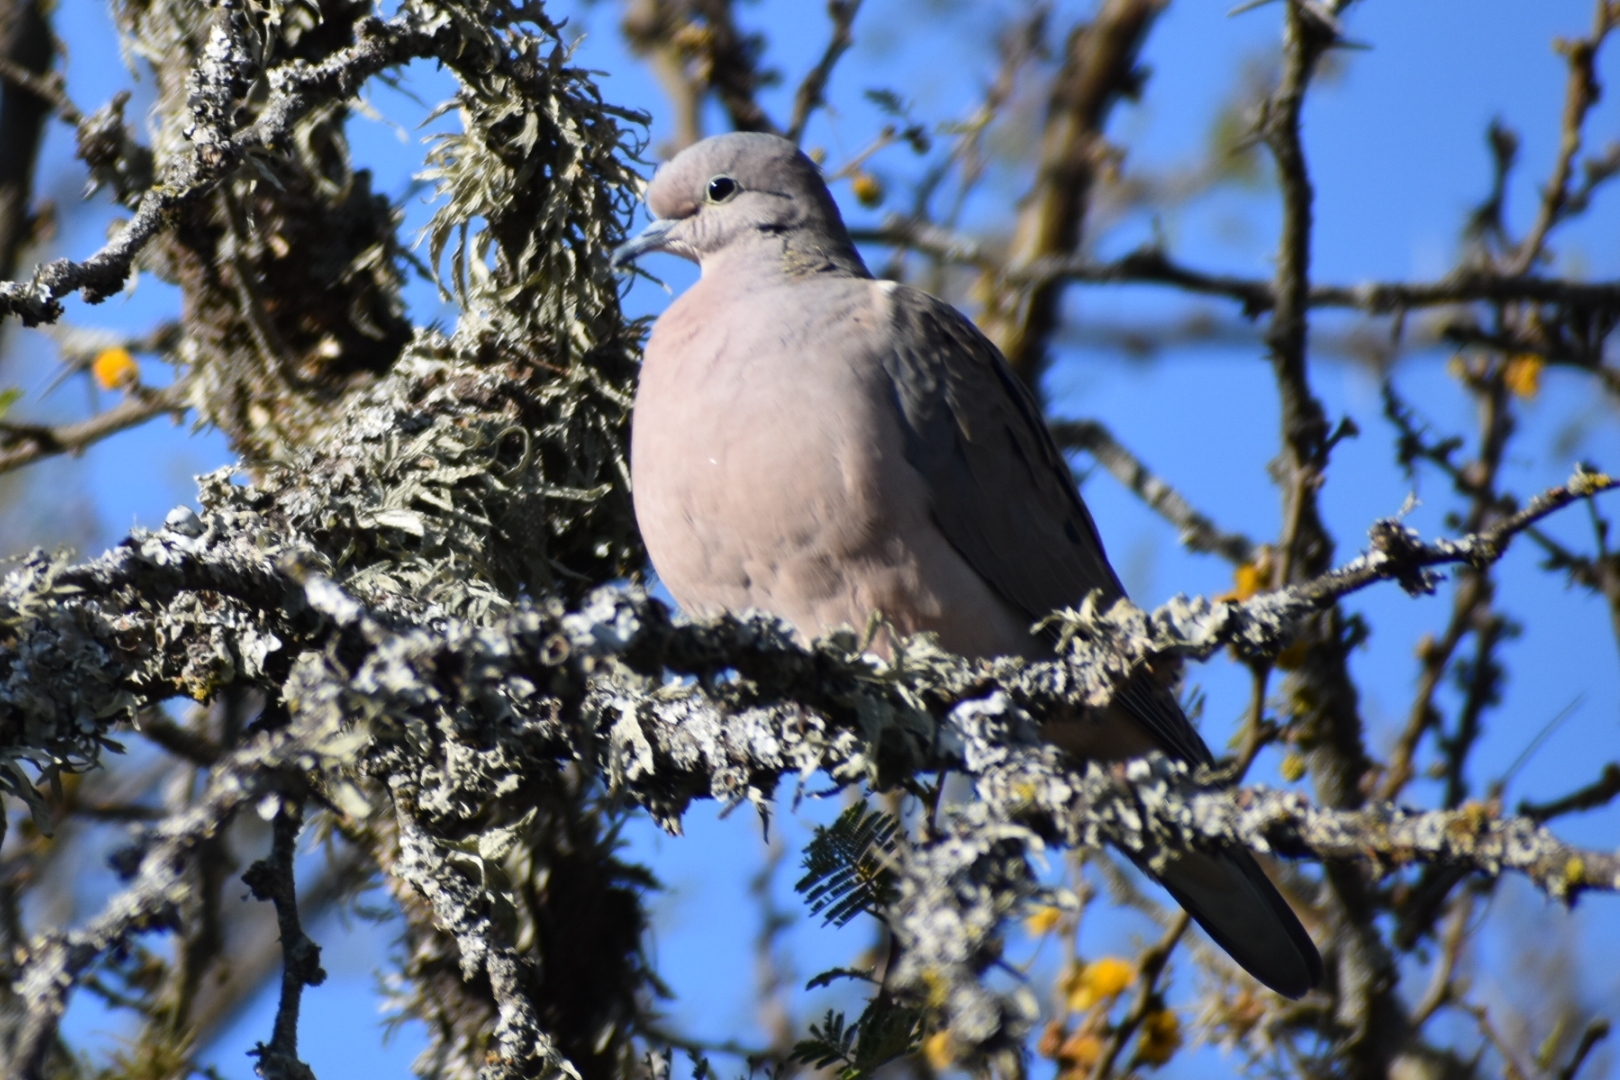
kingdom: Animalia
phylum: Chordata
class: Aves
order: Columbiformes
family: Columbidae
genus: Zenaida
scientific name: Zenaida auriculata
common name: Eared dove
